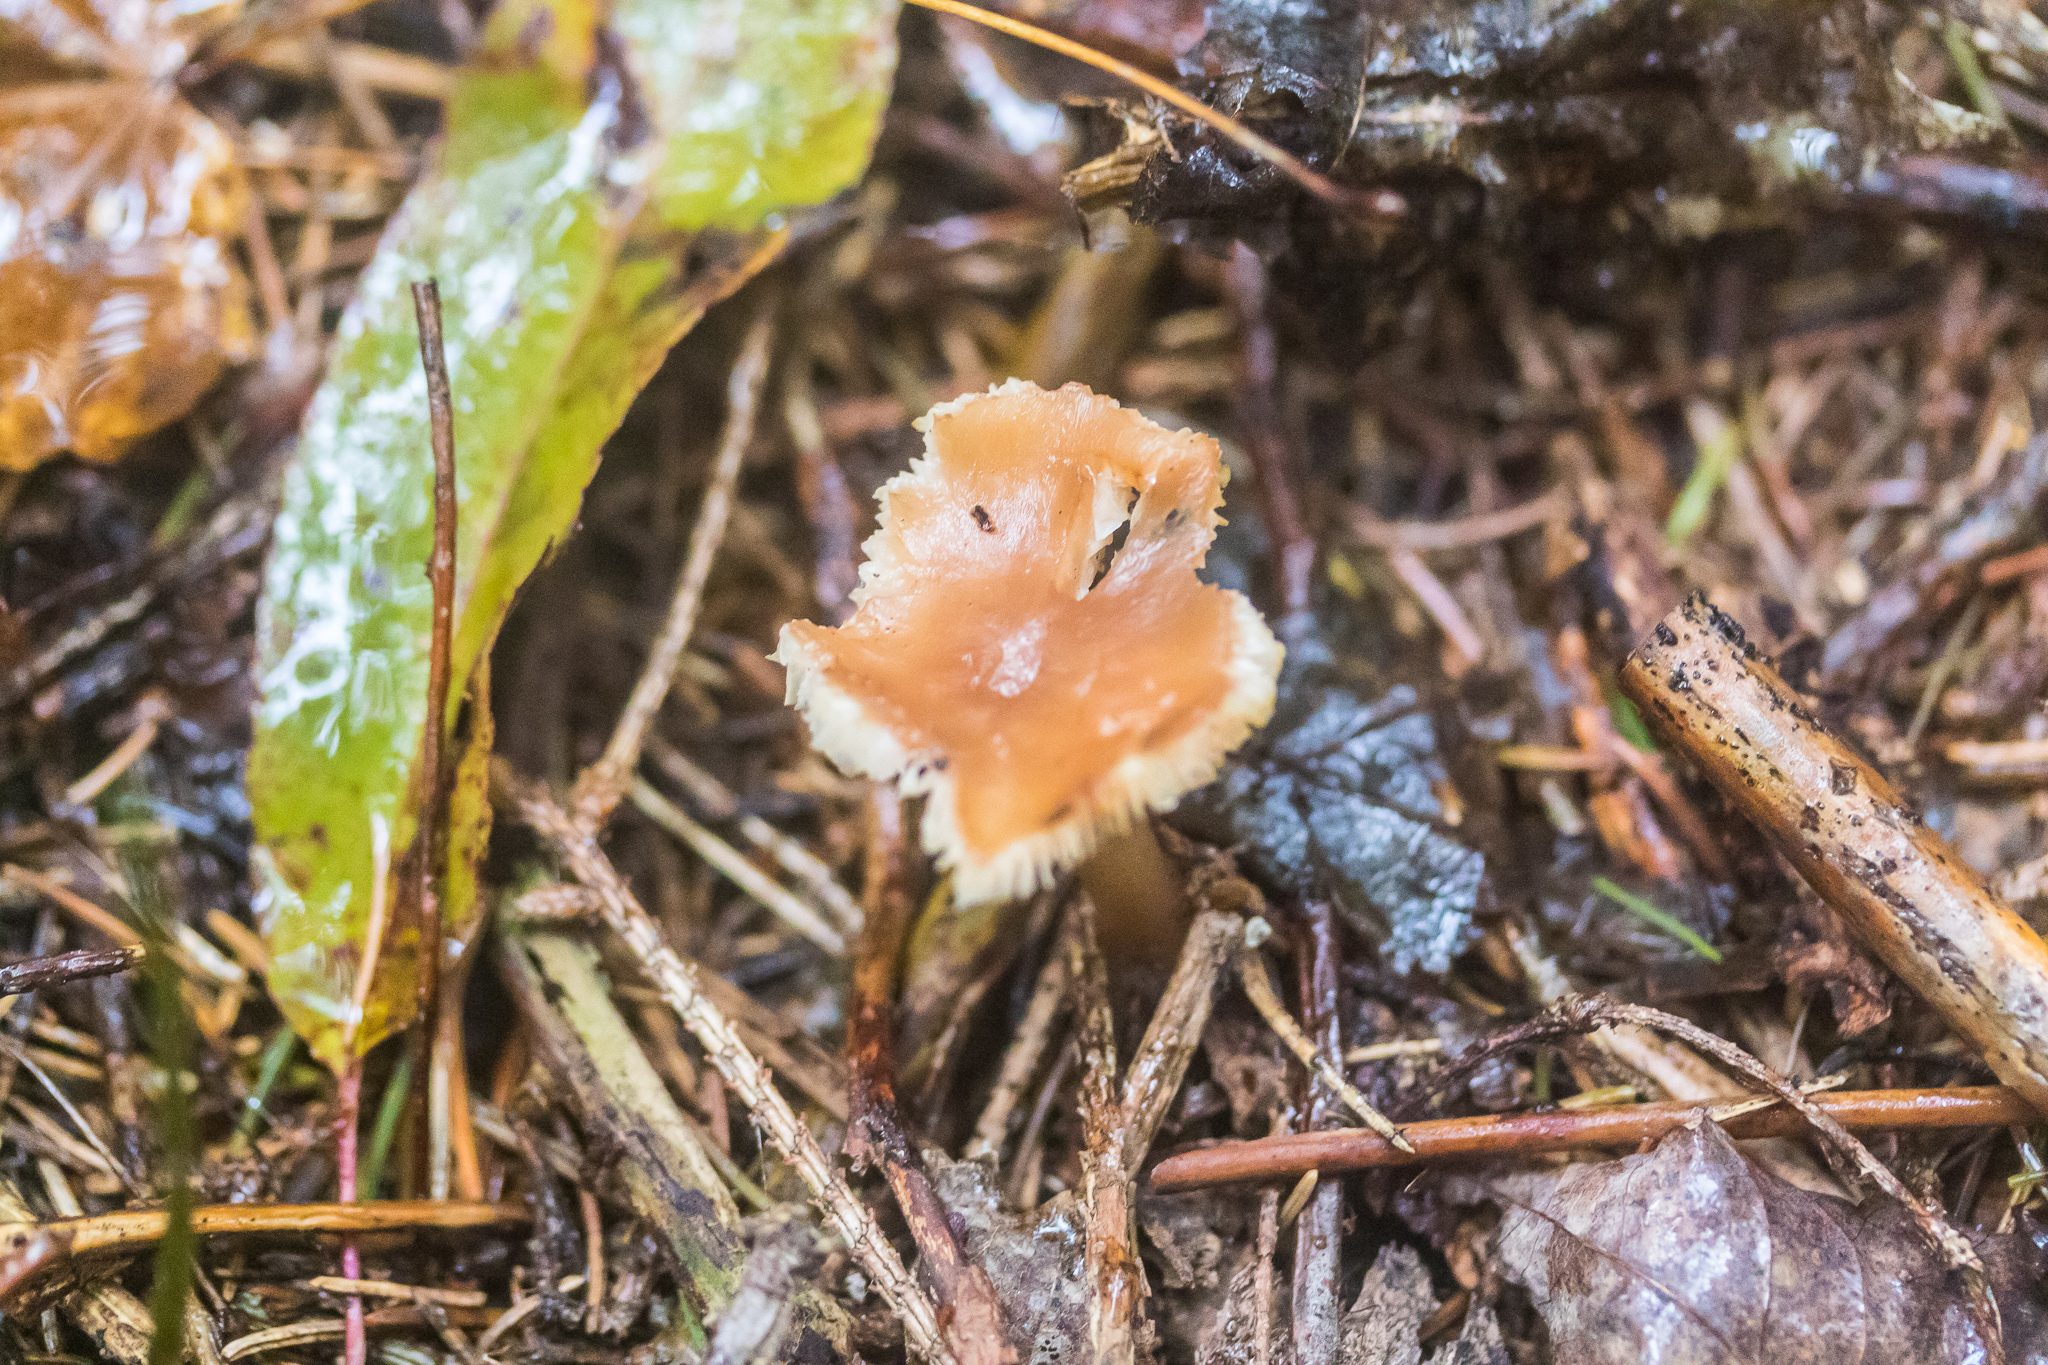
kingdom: Fungi
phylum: Basidiomycota
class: Agaricomycetes
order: Agaricales
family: Omphalotaceae
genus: Gymnopus
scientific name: Gymnopus dryophilus
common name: Penny top
